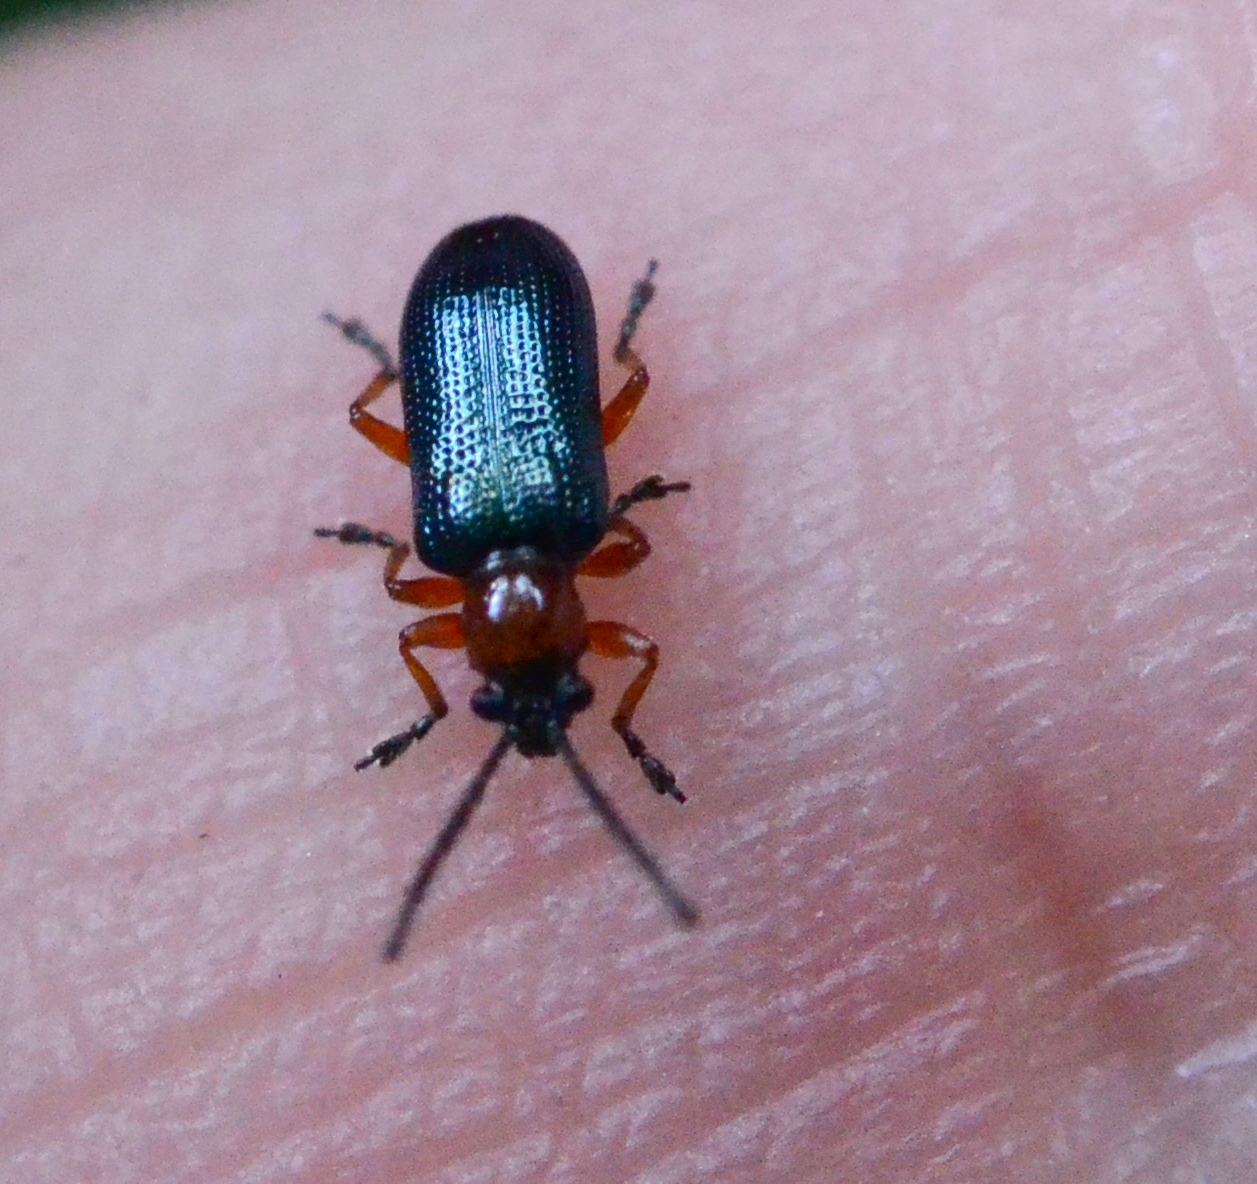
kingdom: Animalia
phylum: Arthropoda
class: Insecta
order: Coleoptera
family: Chrysomelidae
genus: Oulema
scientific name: Oulema
